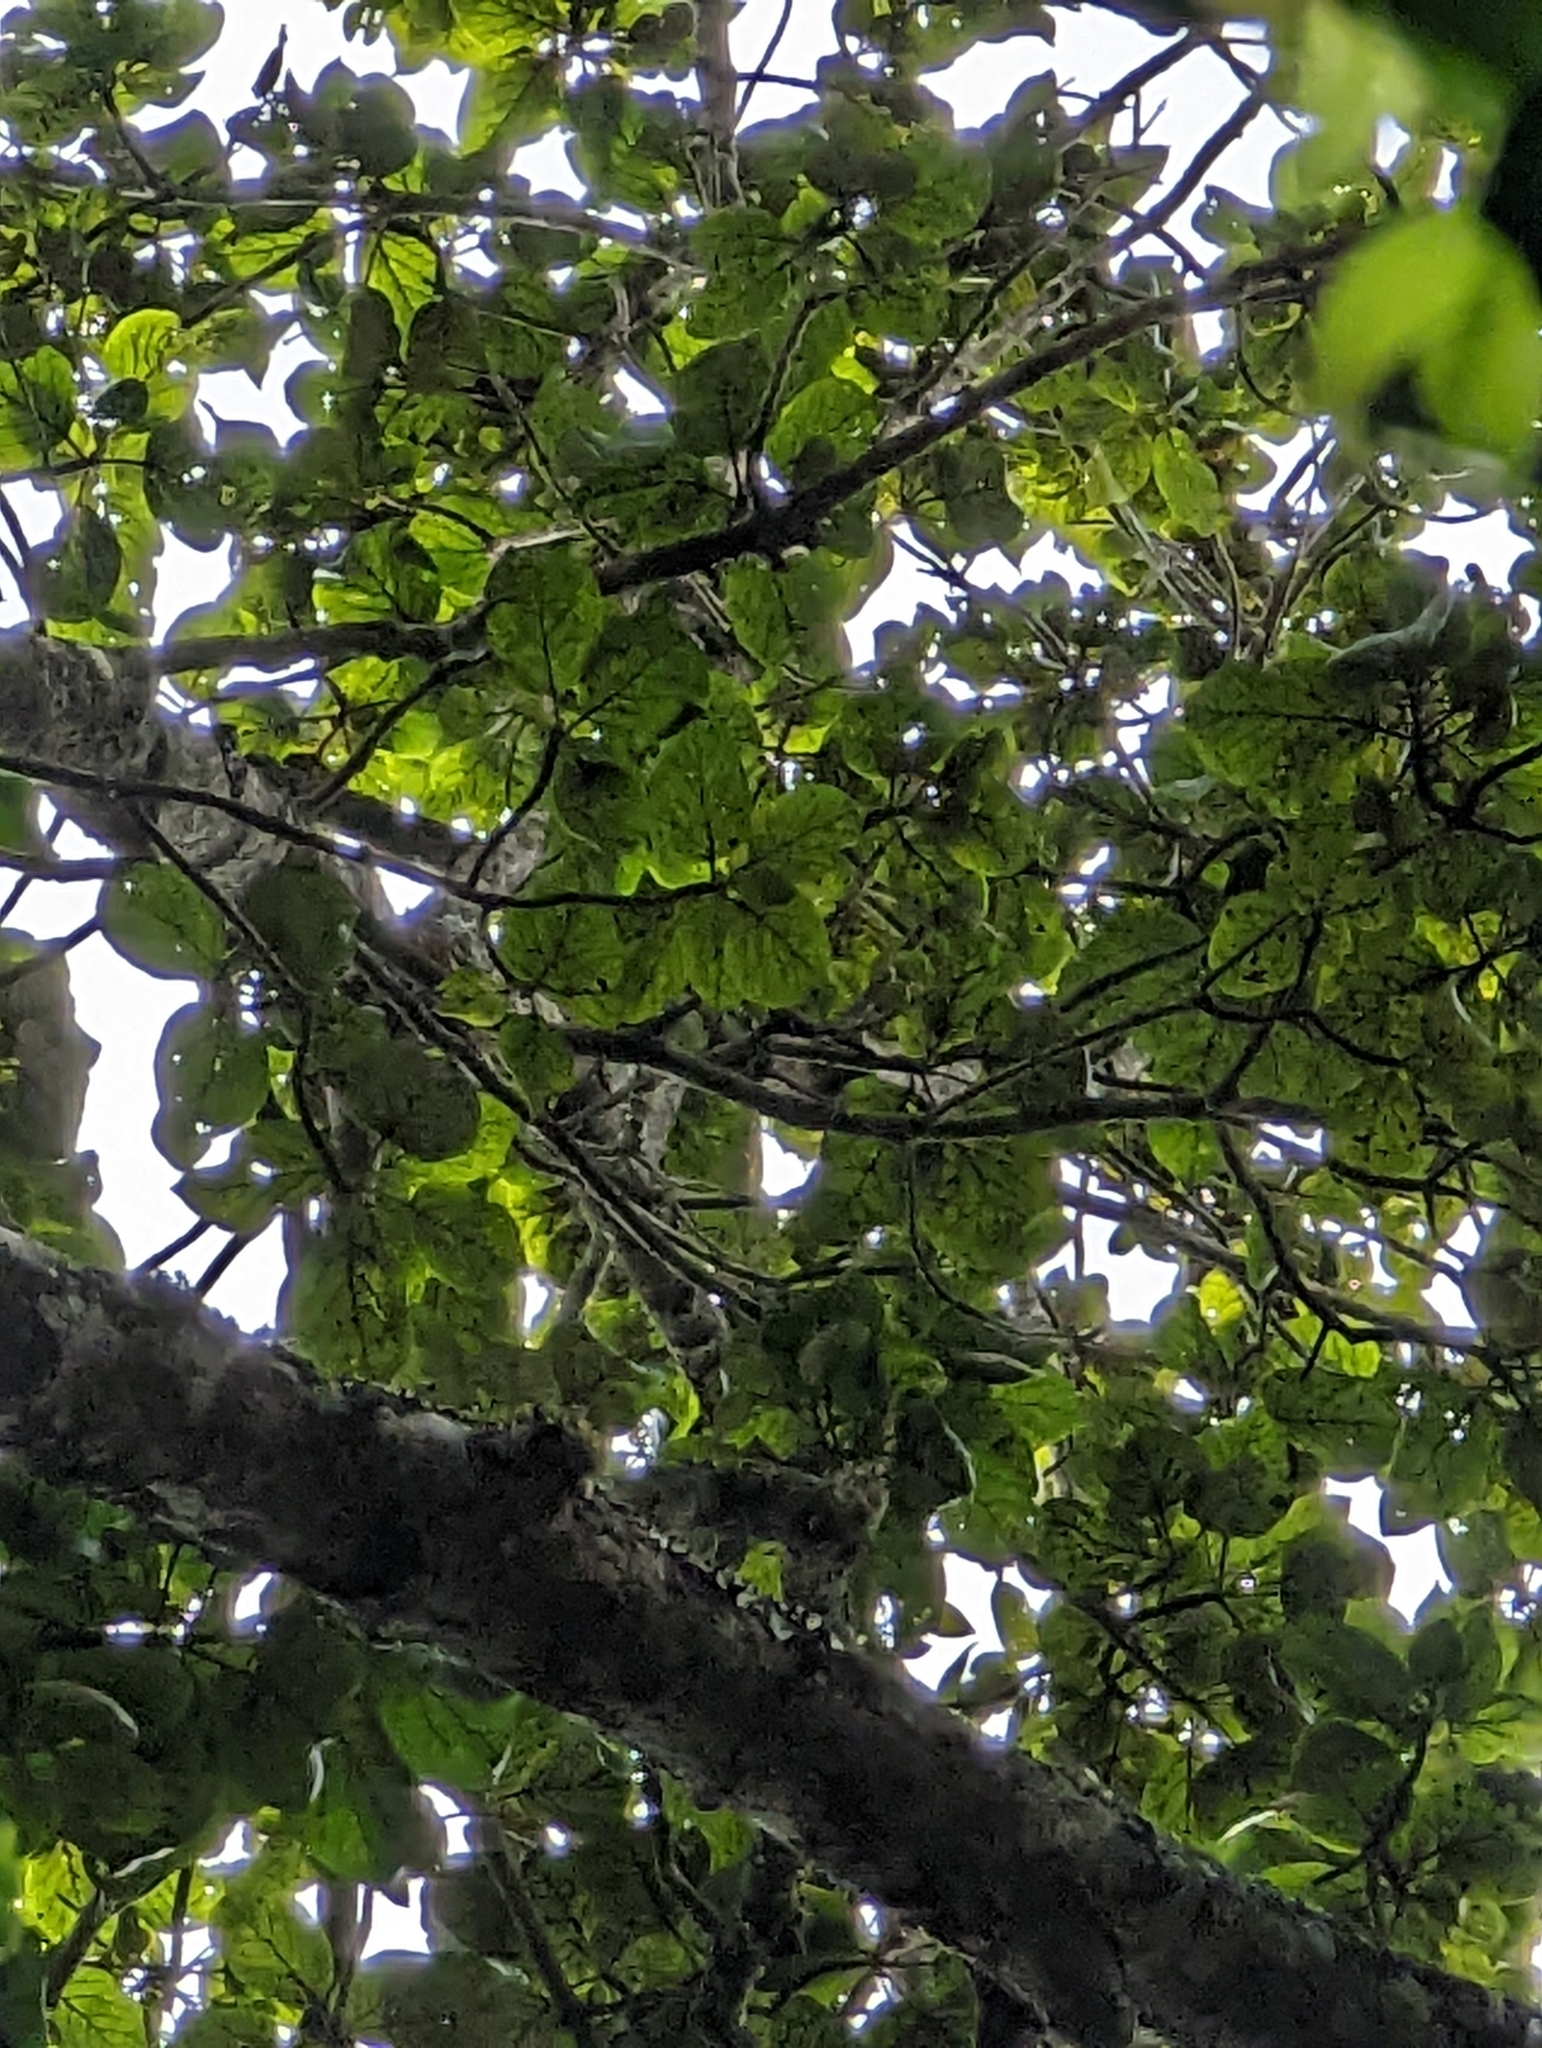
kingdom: Plantae
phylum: Tracheophyta
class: Magnoliopsida
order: Lamiales
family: Lamiaceae
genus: Gmelina
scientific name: Gmelina leichhardtii
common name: Queensland-beech
